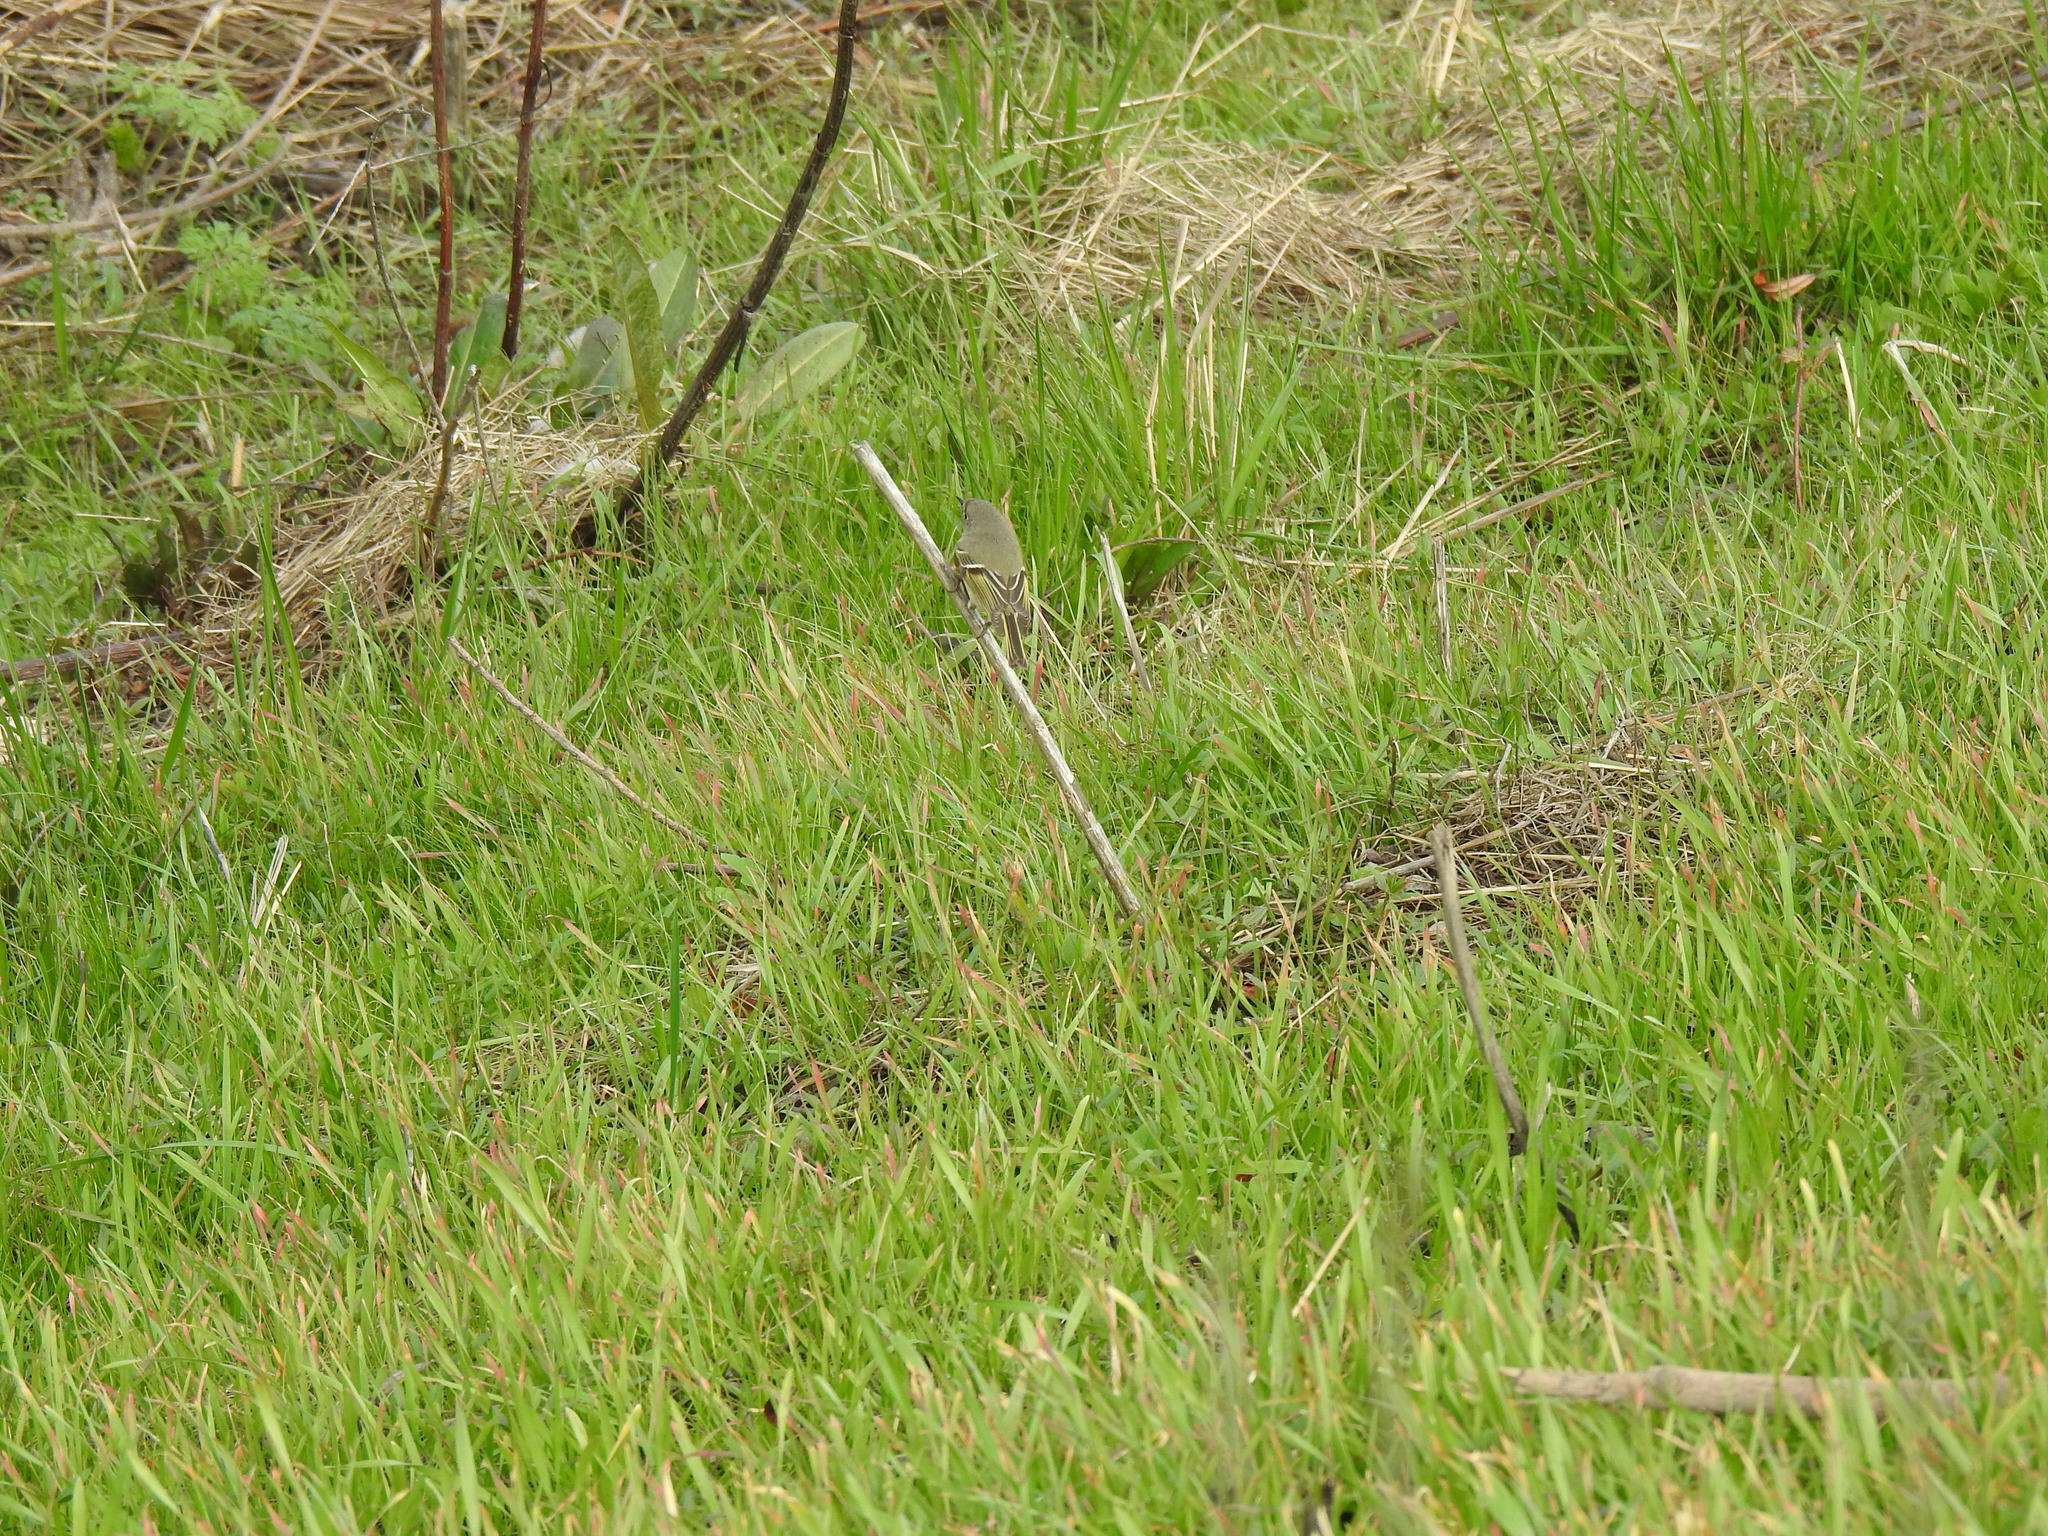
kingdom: Animalia
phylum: Chordata
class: Aves
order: Passeriformes
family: Regulidae
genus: Regulus
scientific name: Regulus calendula
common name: Ruby-crowned kinglet
